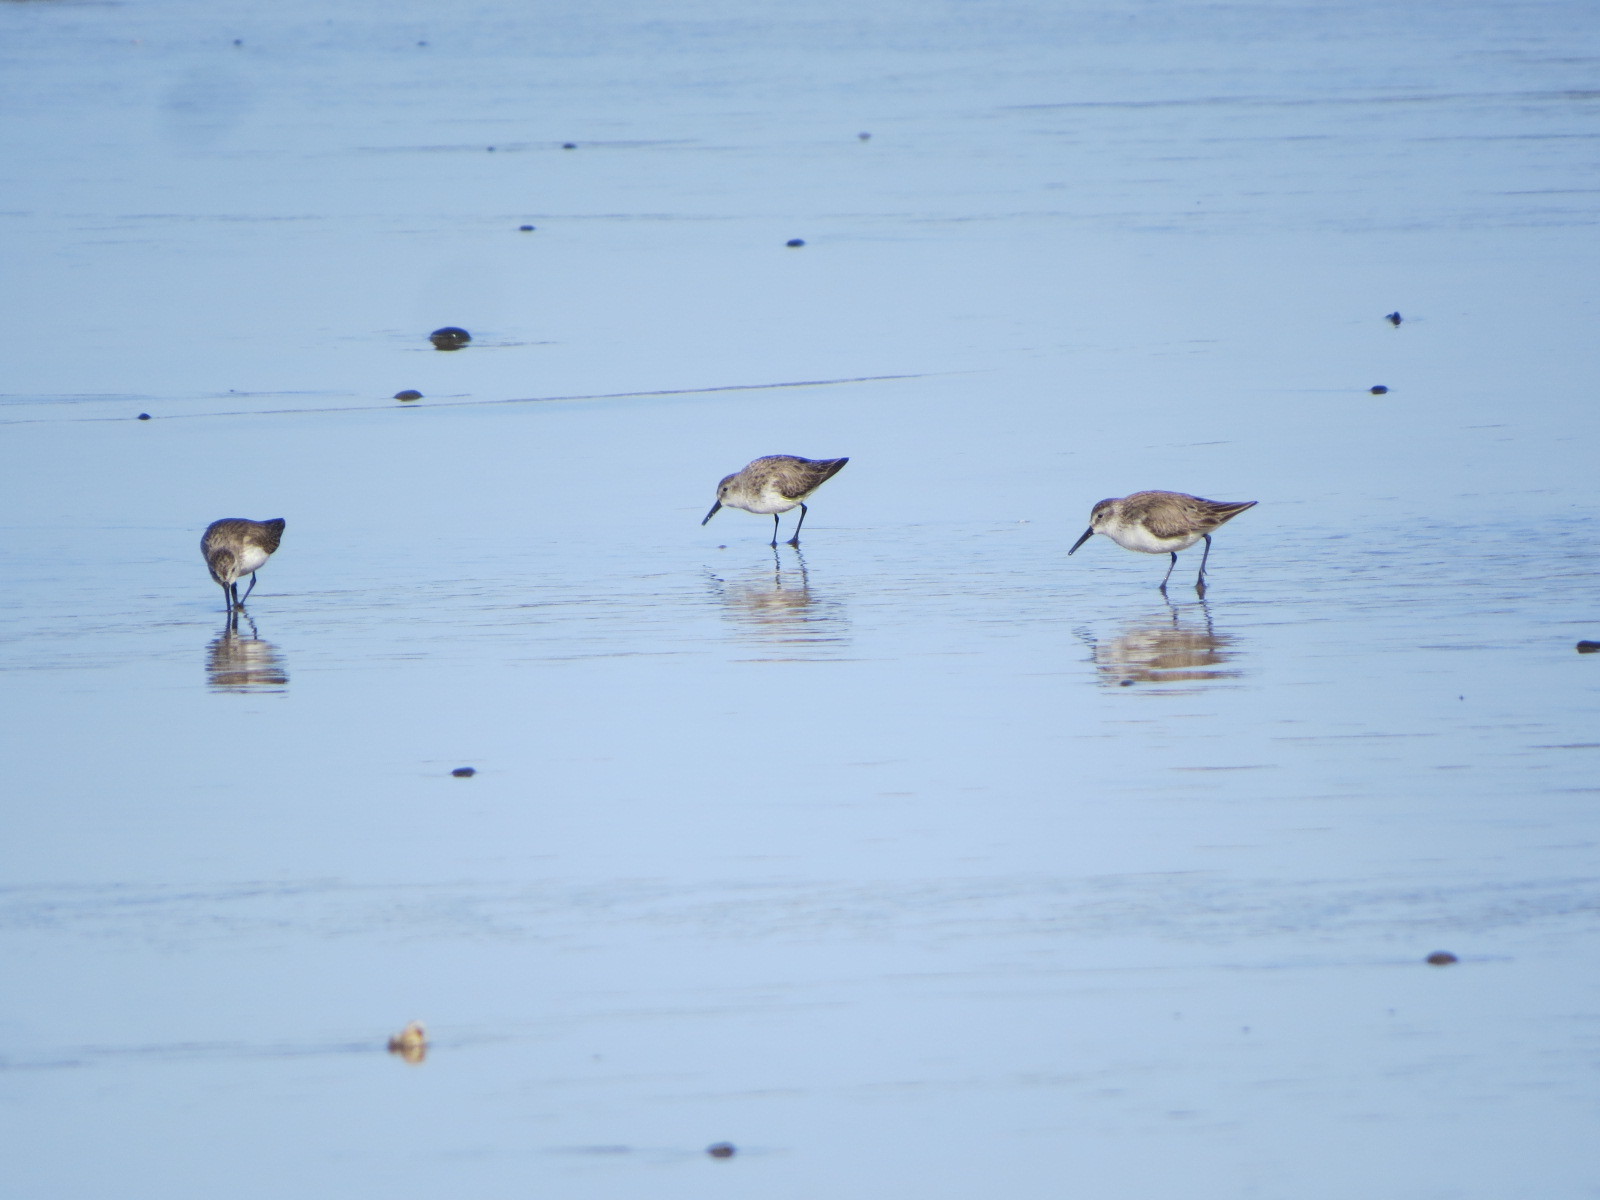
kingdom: Animalia
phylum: Chordata
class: Aves
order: Charadriiformes
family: Scolopacidae
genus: Calidris
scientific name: Calidris mauri
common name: Western sandpiper
